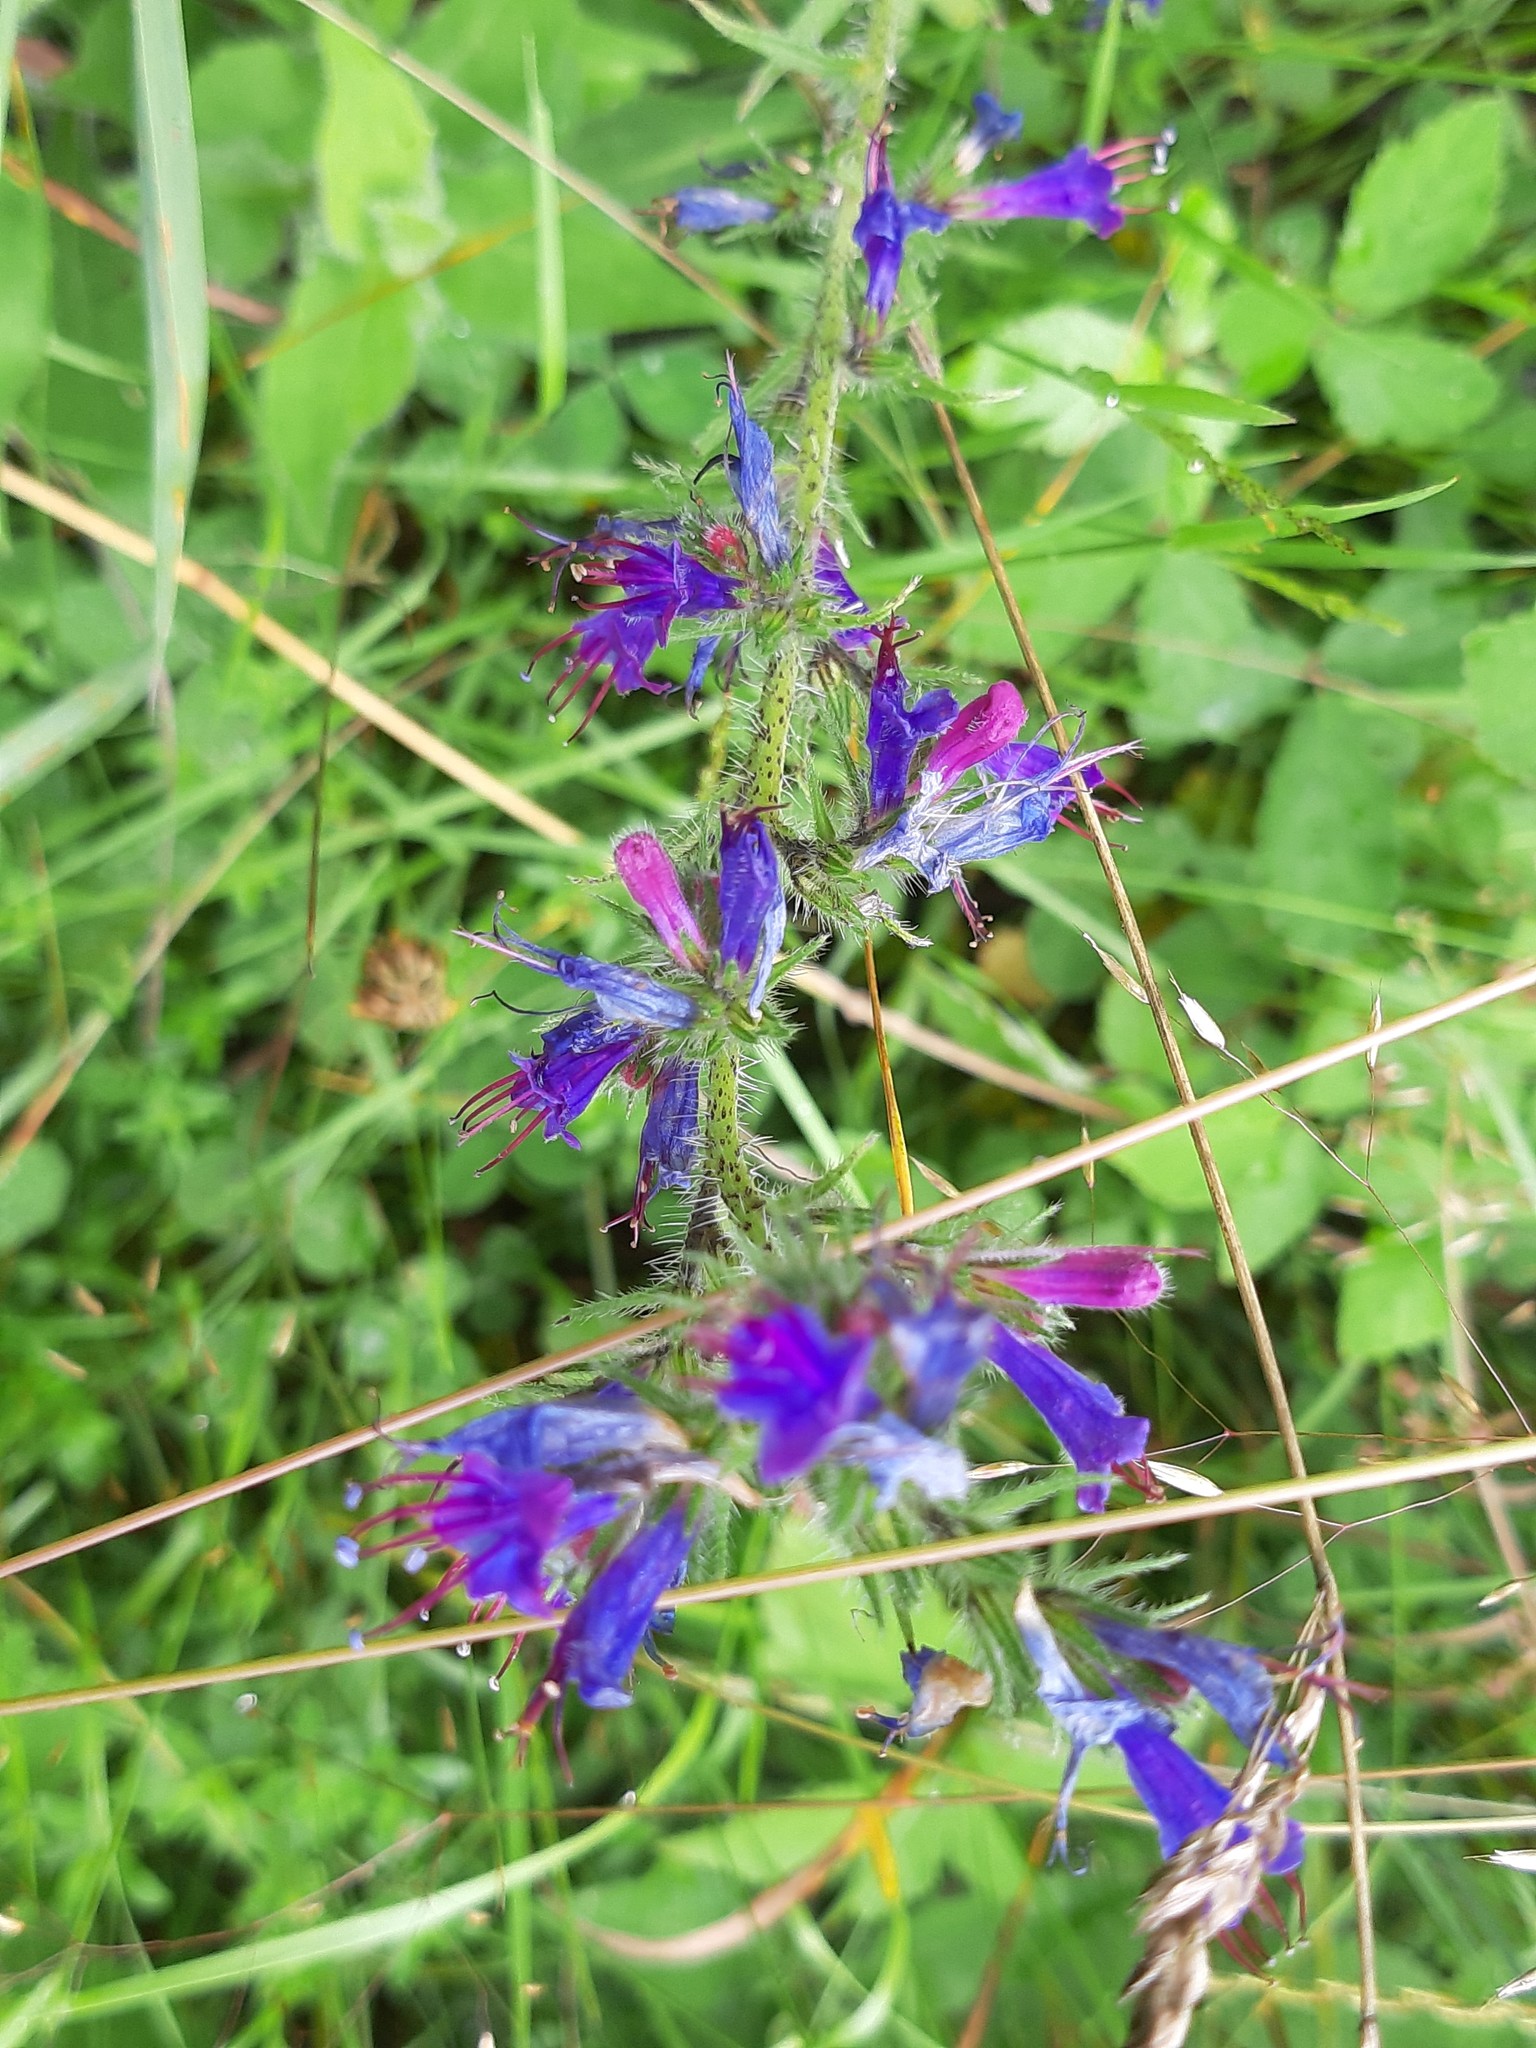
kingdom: Plantae
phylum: Tracheophyta
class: Magnoliopsida
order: Boraginales
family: Boraginaceae
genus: Echium
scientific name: Echium vulgare
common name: Common viper's bugloss
